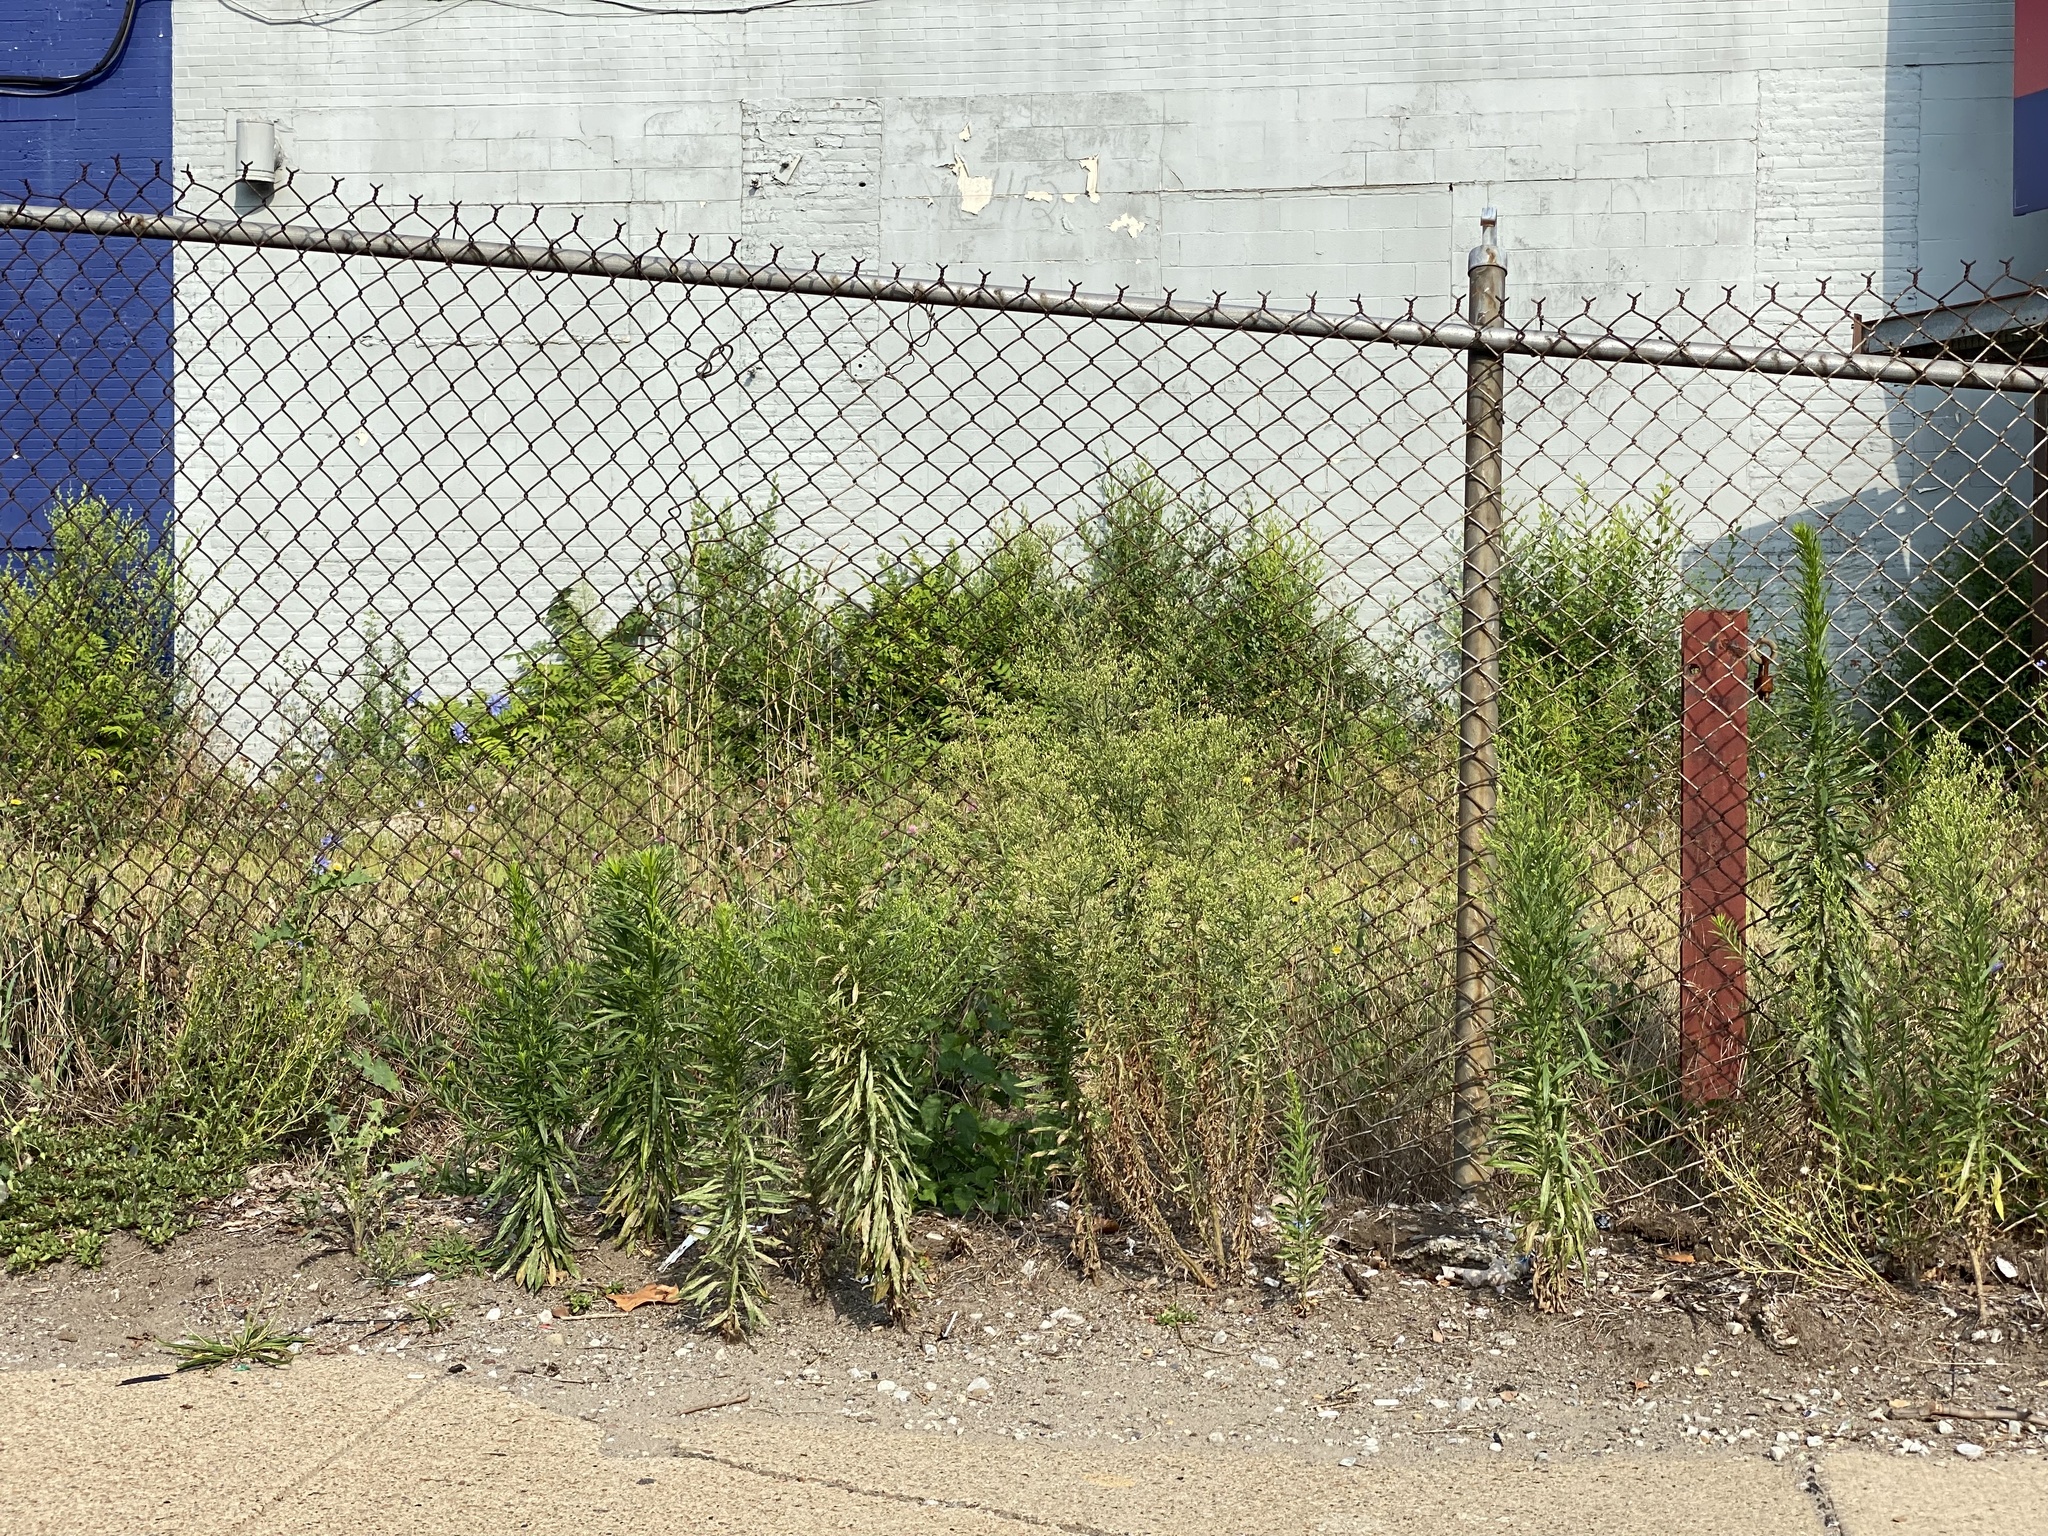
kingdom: Plantae
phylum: Tracheophyta
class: Magnoliopsida
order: Asterales
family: Asteraceae
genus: Erigeron
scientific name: Erigeron canadensis
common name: Canadian fleabane
